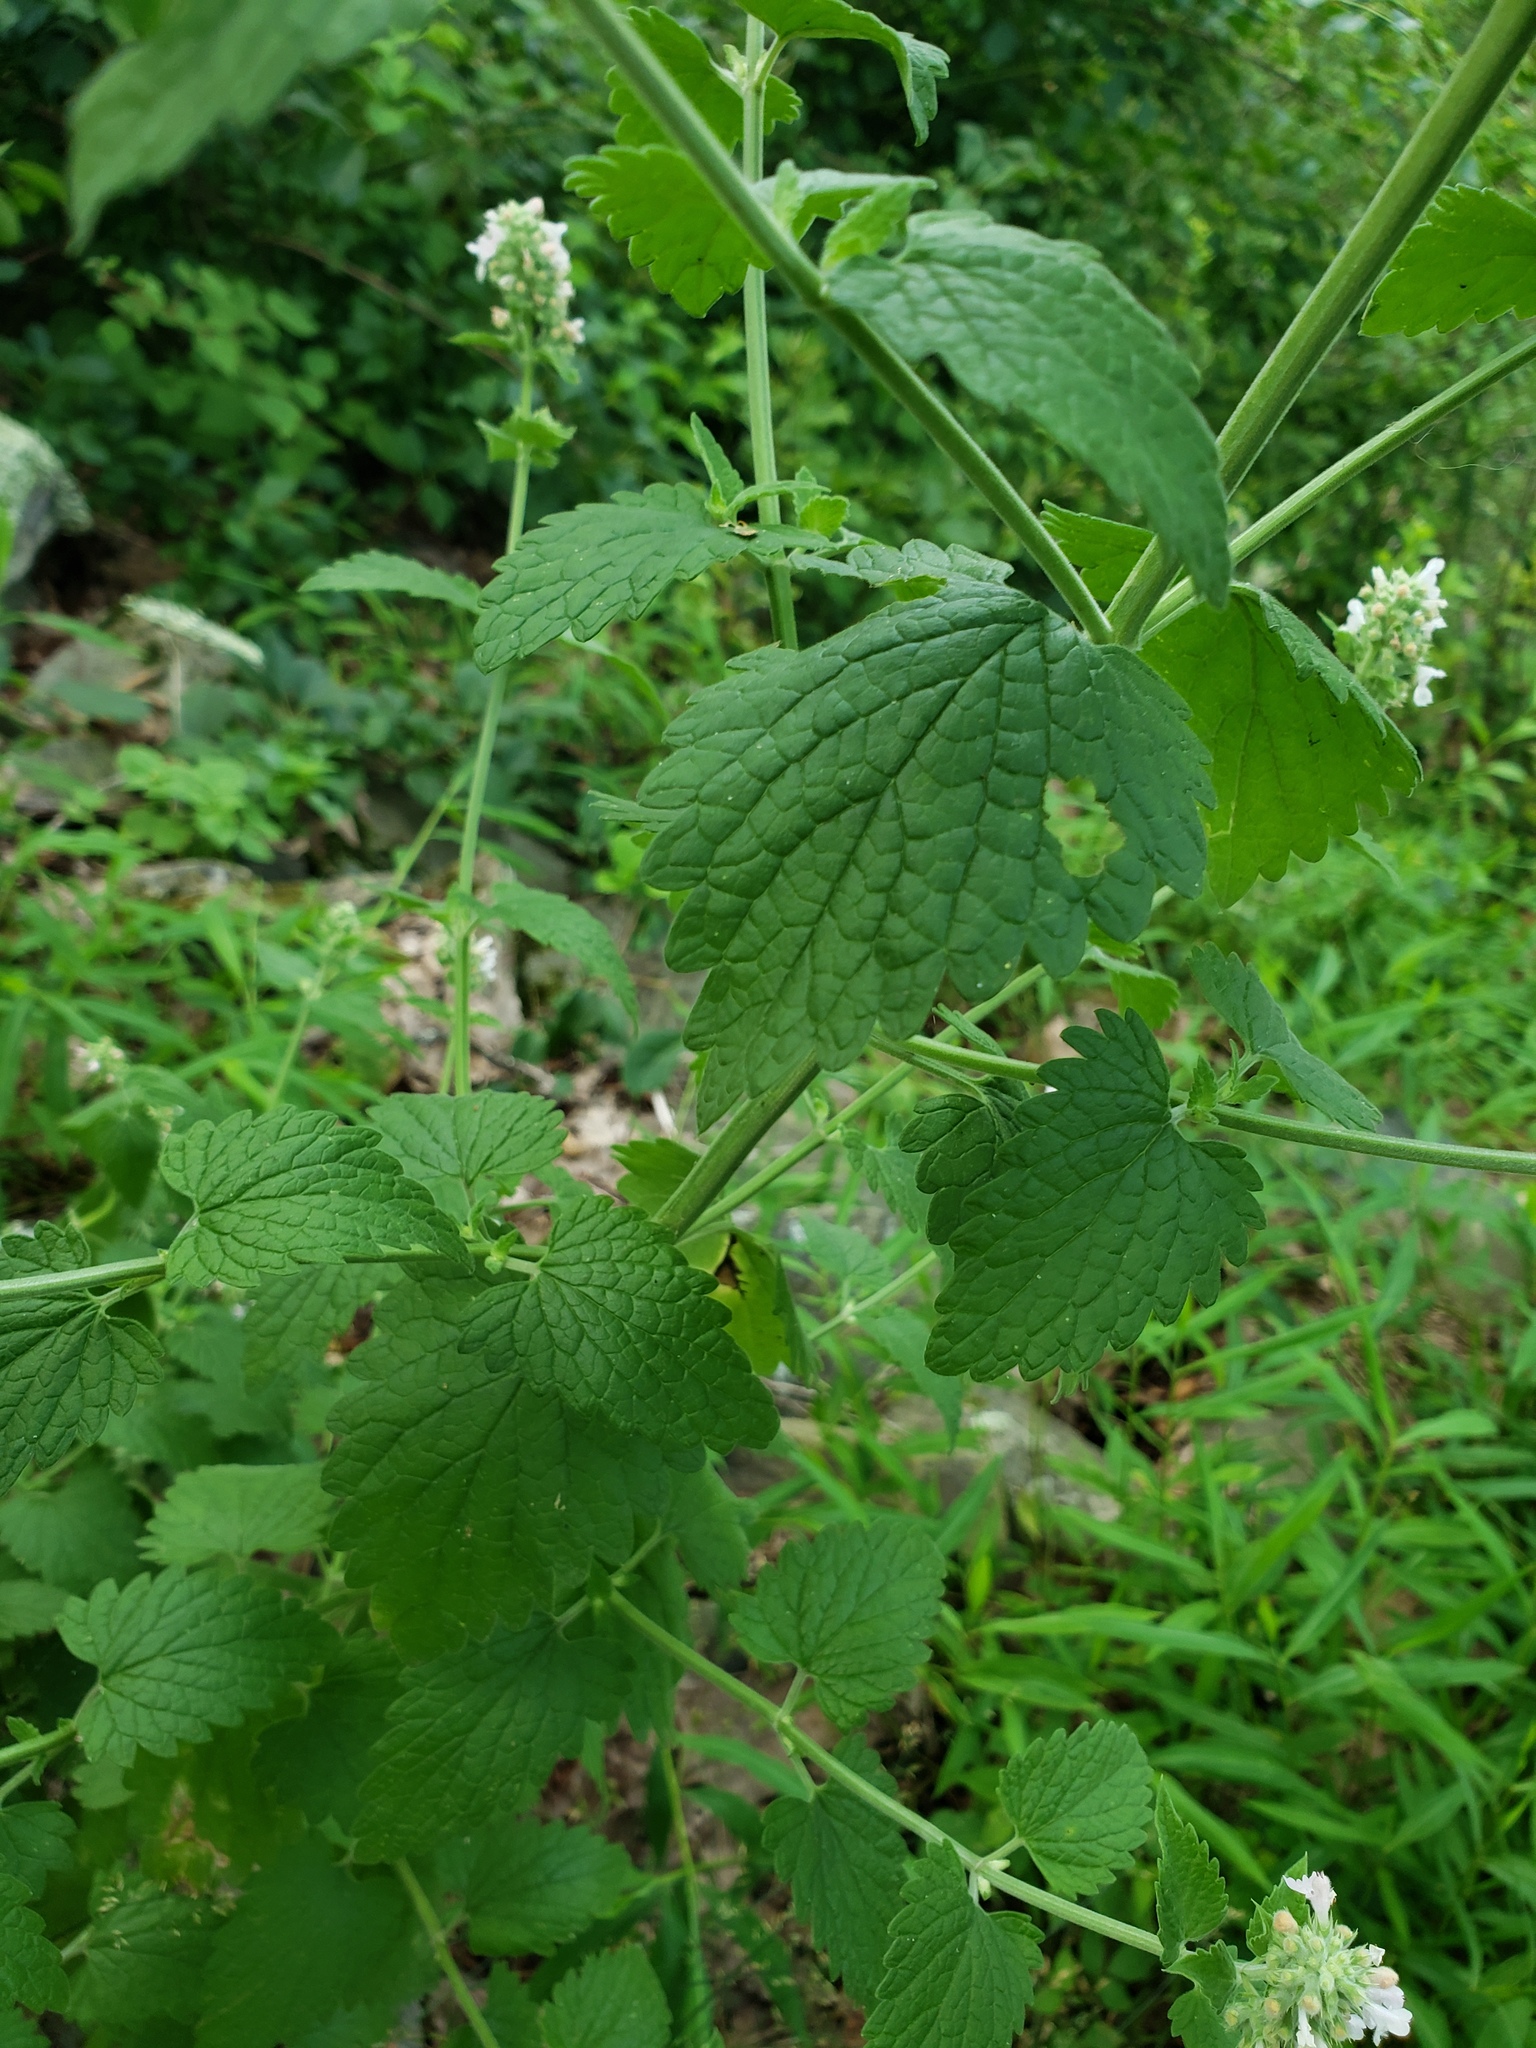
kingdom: Plantae
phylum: Tracheophyta
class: Magnoliopsida
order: Lamiales
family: Lamiaceae
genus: Nepeta
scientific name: Nepeta cataria
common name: Catnip
